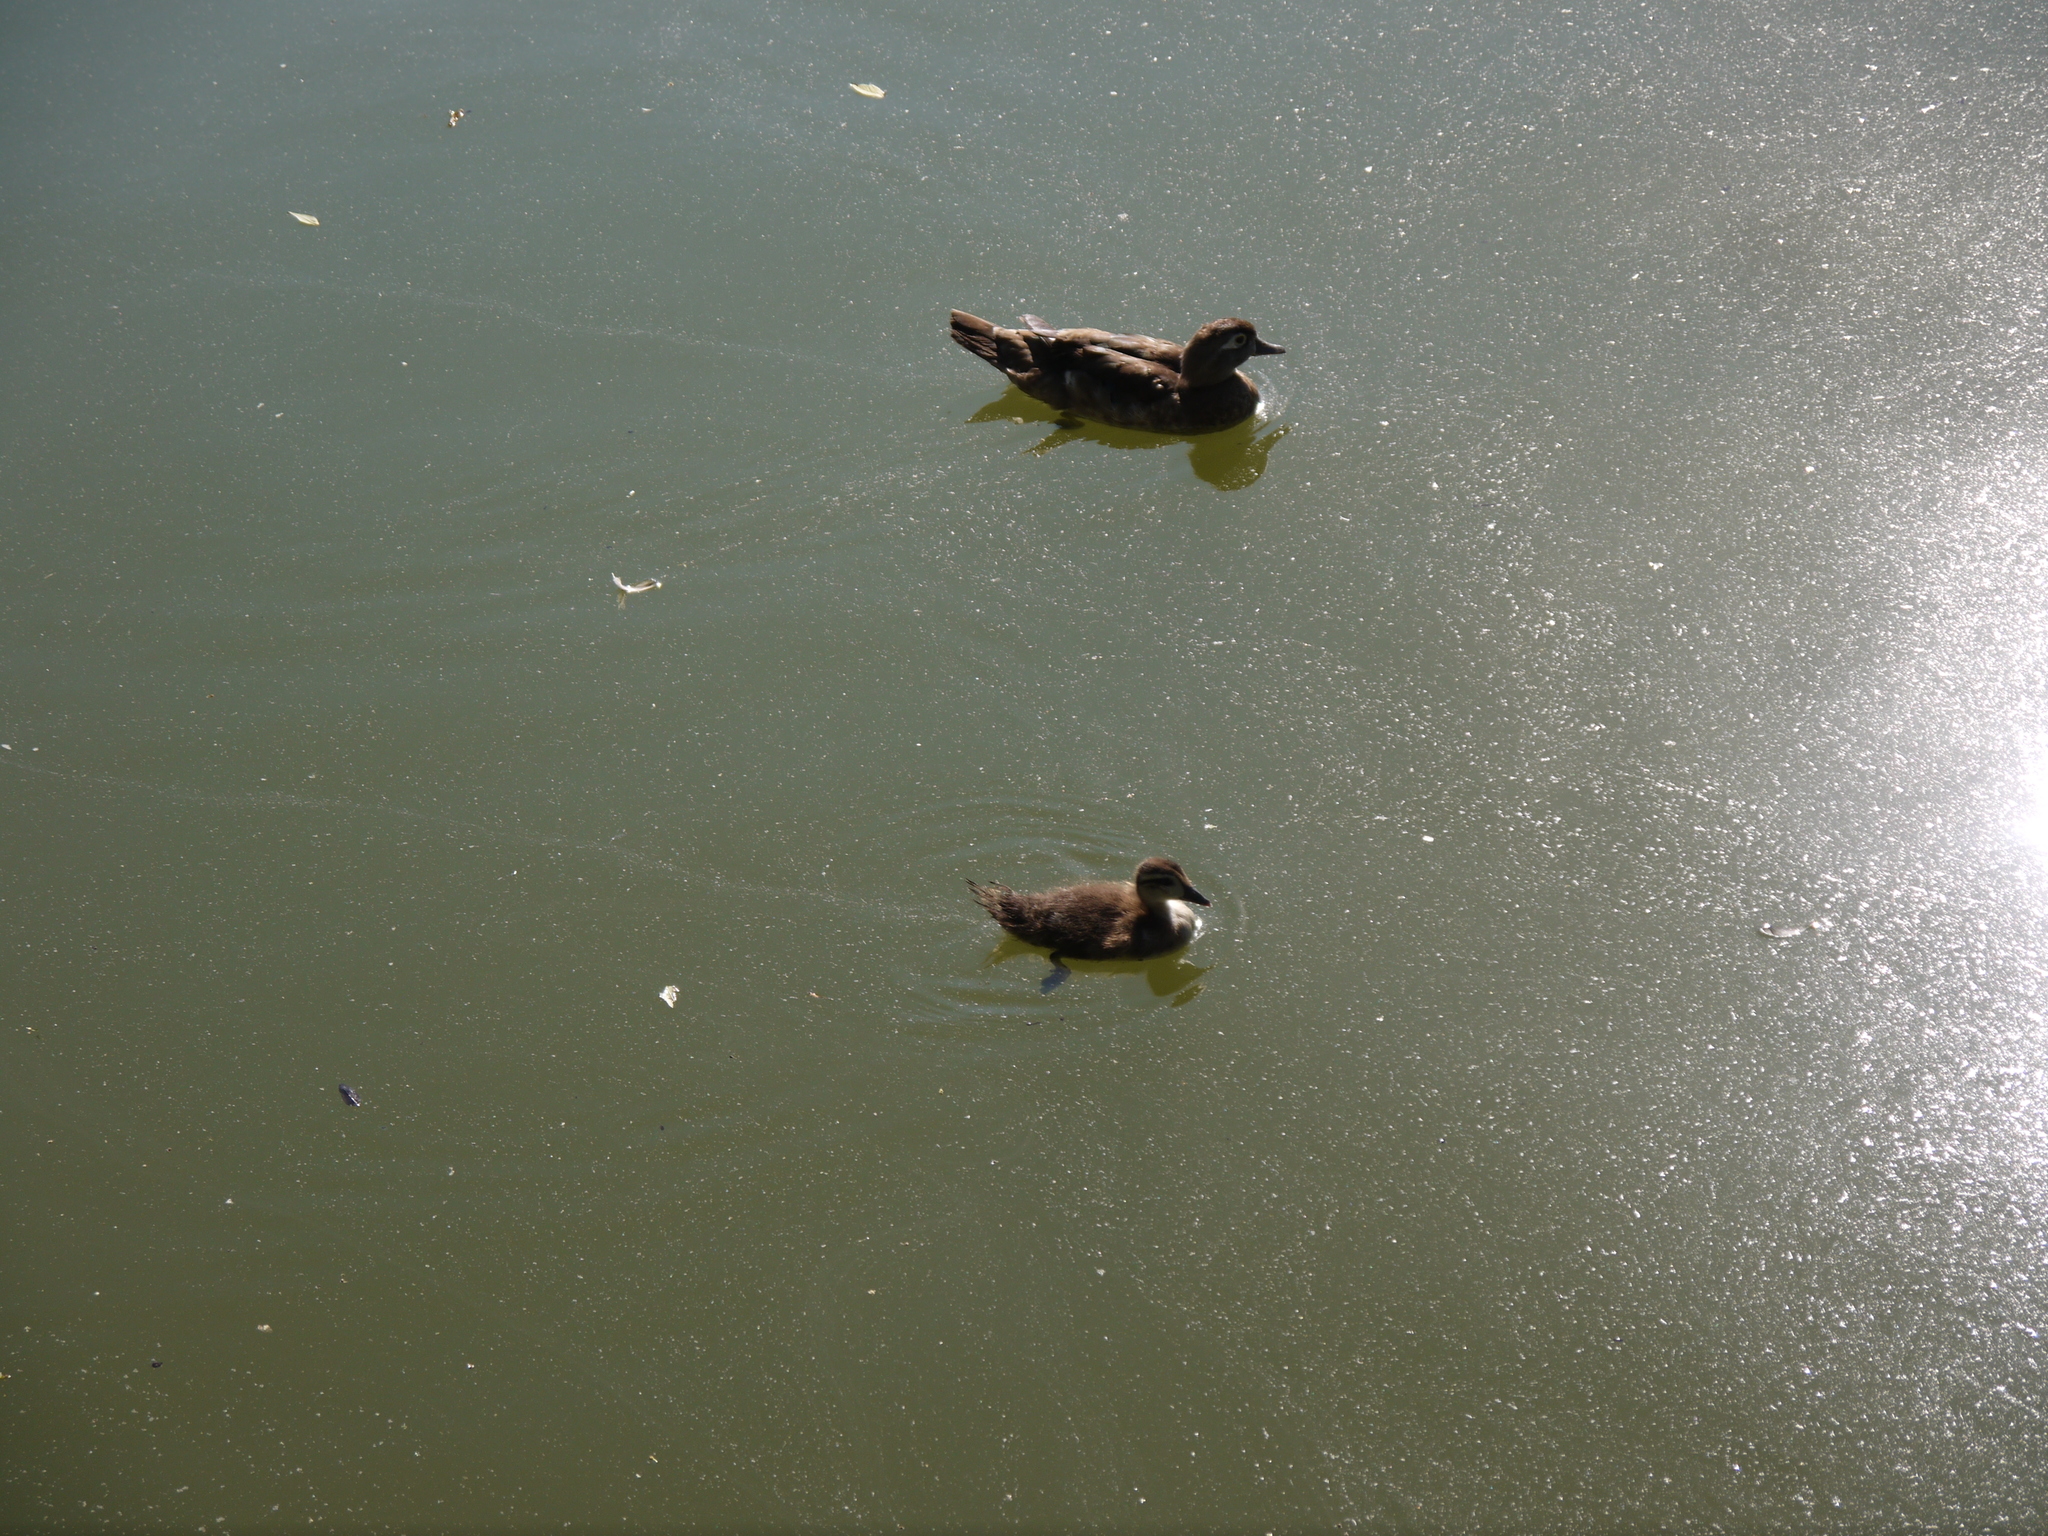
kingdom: Animalia
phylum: Chordata
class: Aves
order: Anseriformes
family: Anatidae
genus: Aix
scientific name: Aix sponsa
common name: Wood duck
